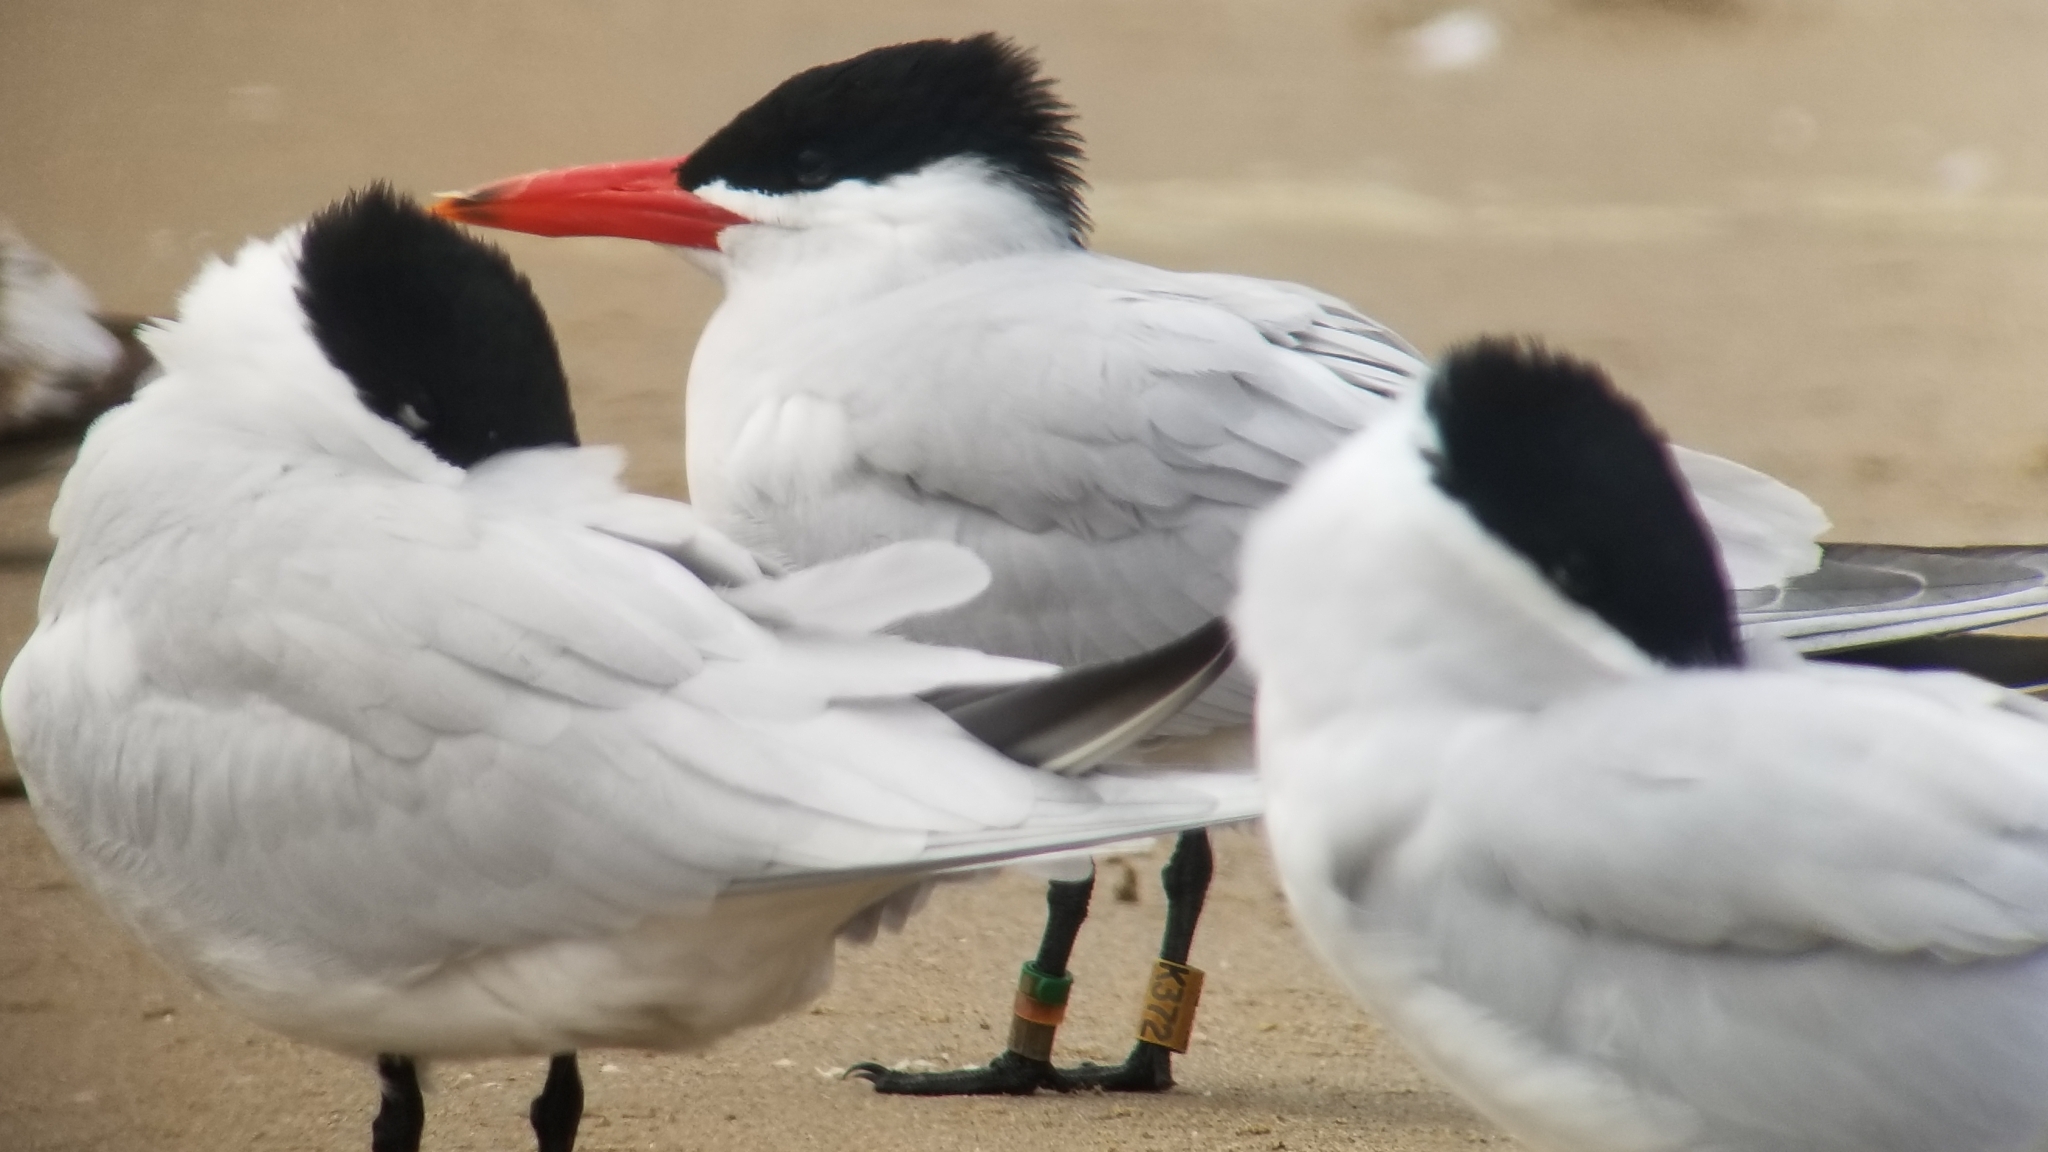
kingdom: Animalia
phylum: Chordata
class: Aves
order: Charadriiformes
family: Laridae
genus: Hydroprogne
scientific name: Hydroprogne caspia
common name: Caspian tern
